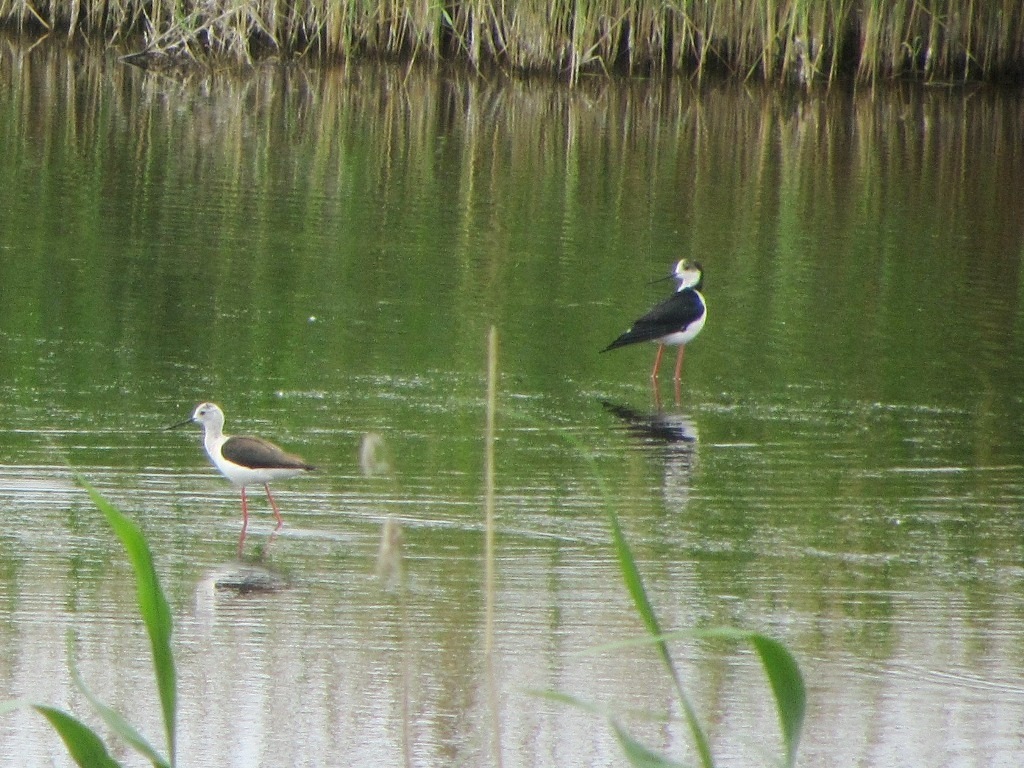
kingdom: Animalia
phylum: Chordata
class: Aves
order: Charadriiformes
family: Recurvirostridae
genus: Himantopus
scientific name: Himantopus himantopus
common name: Black-winged stilt
